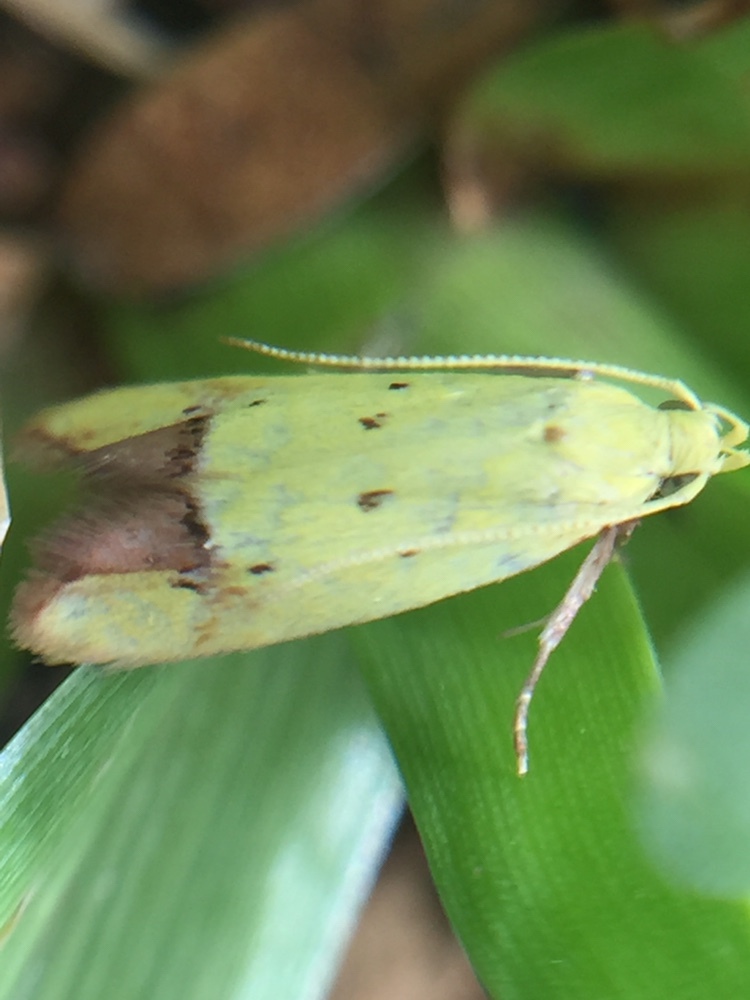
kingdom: Animalia
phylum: Arthropoda
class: Insecta
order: Lepidoptera
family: Oecophoridae
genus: Gymnobathra
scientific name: Gymnobathra flavidella
